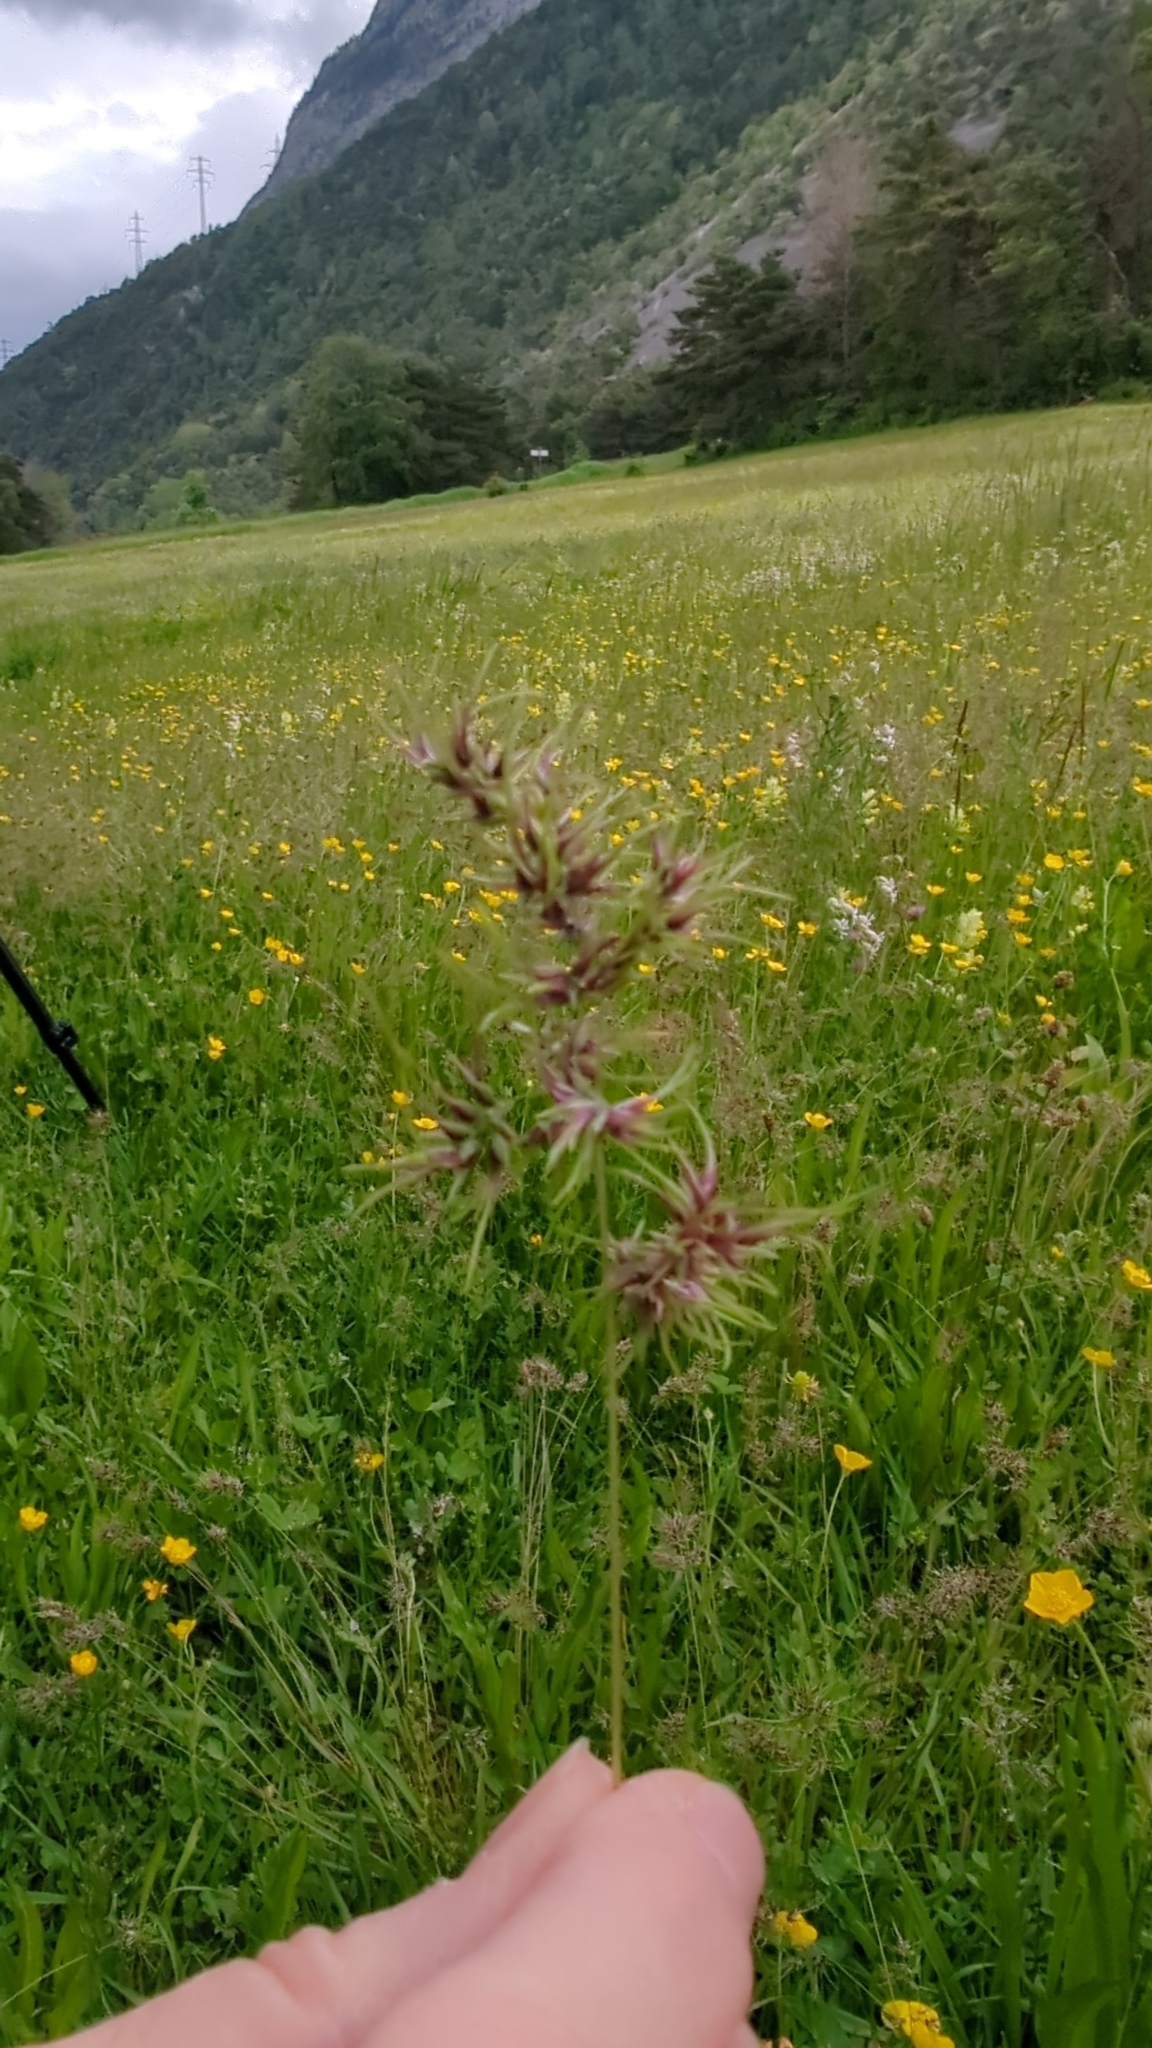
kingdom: Plantae
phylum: Tracheophyta
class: Liliopsida
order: Poales
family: Poaceae
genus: Poa
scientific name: Poa bulbosa
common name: Bulbous bluegrass
